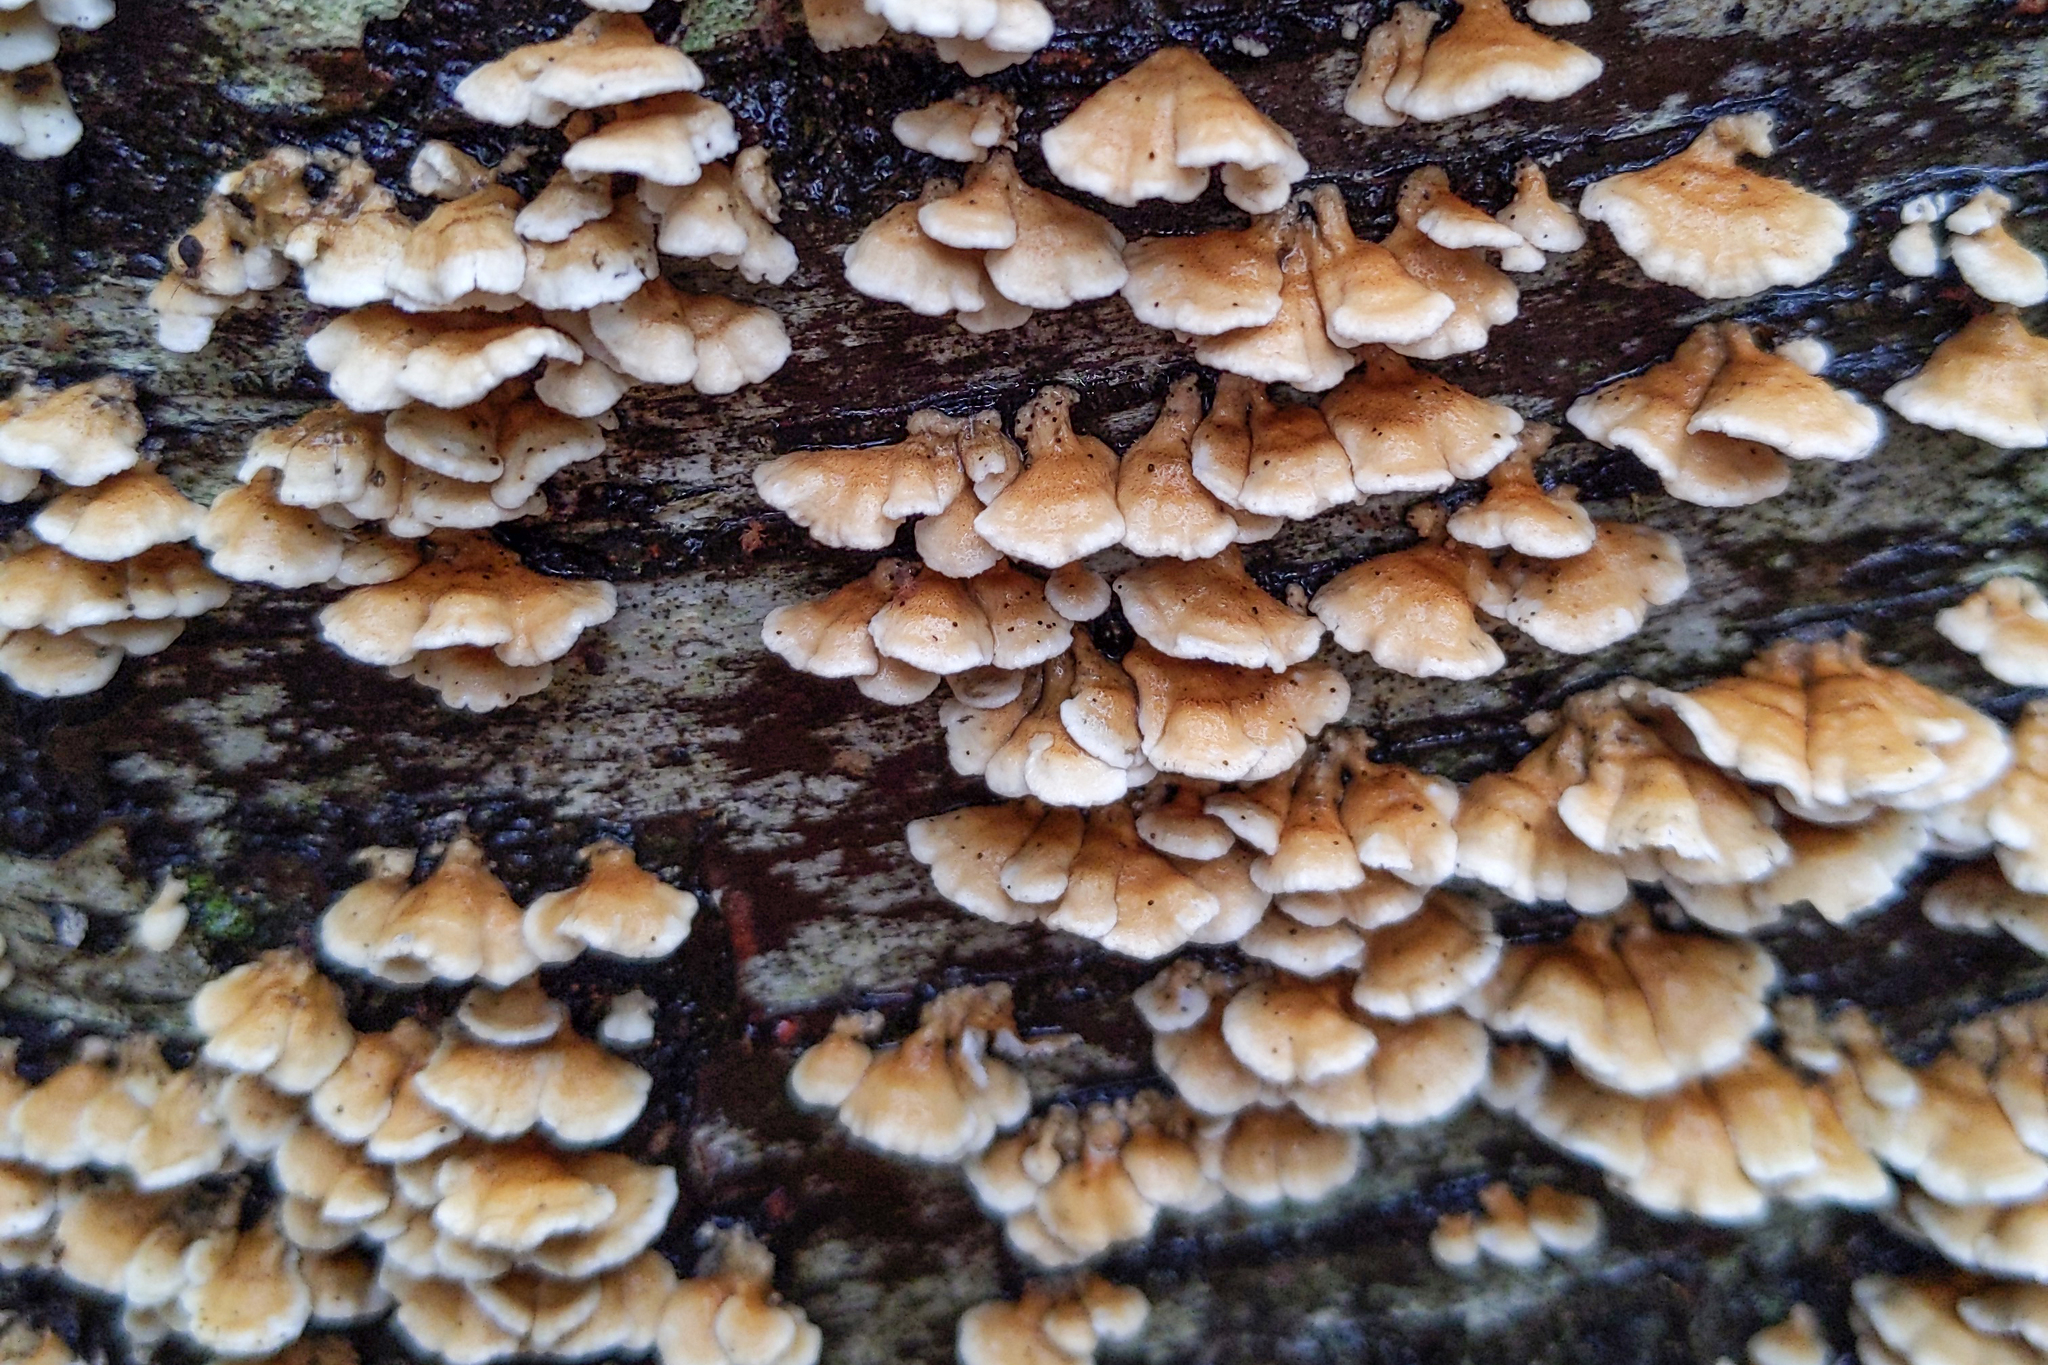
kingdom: Fungi
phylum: Basidiomycota
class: Agaricomycetes
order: Amylocorticiales
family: Amylocorticiaceae
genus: Plicaturopsis
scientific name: Plicaturopsis crispa
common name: Crimped gill
